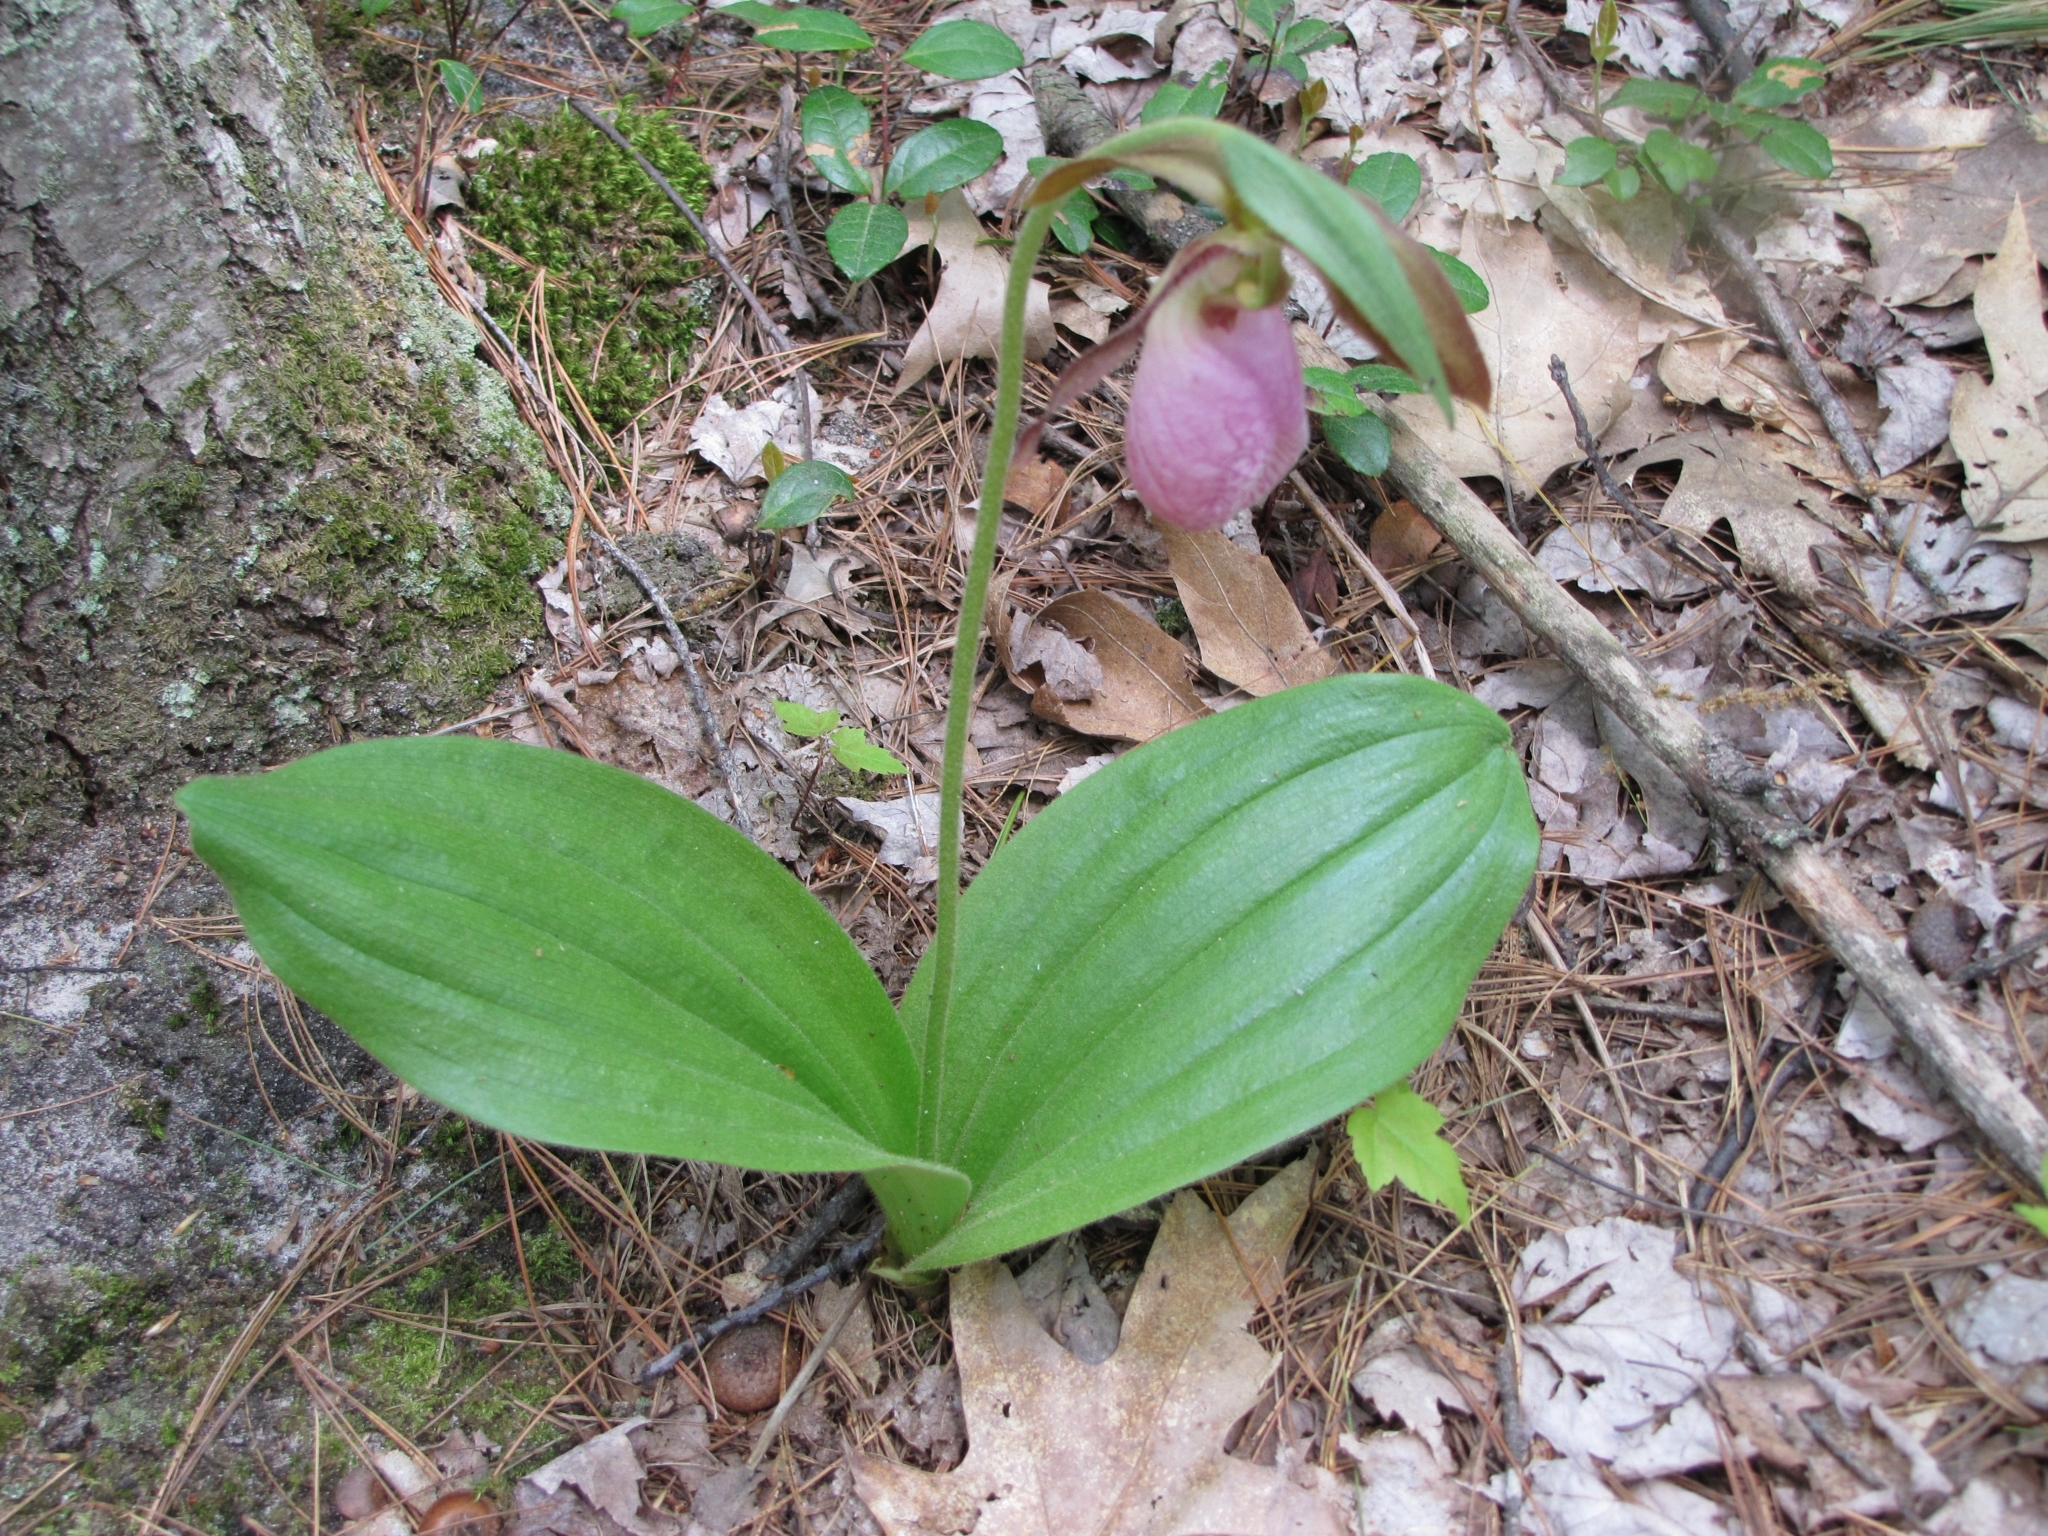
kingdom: Plantae
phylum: Tracheophyta
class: Liliopsida
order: Asparagales
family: Orchidaceae
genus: Cypripedium
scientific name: Cypripedium acaule
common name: Pink lady's-slipper
